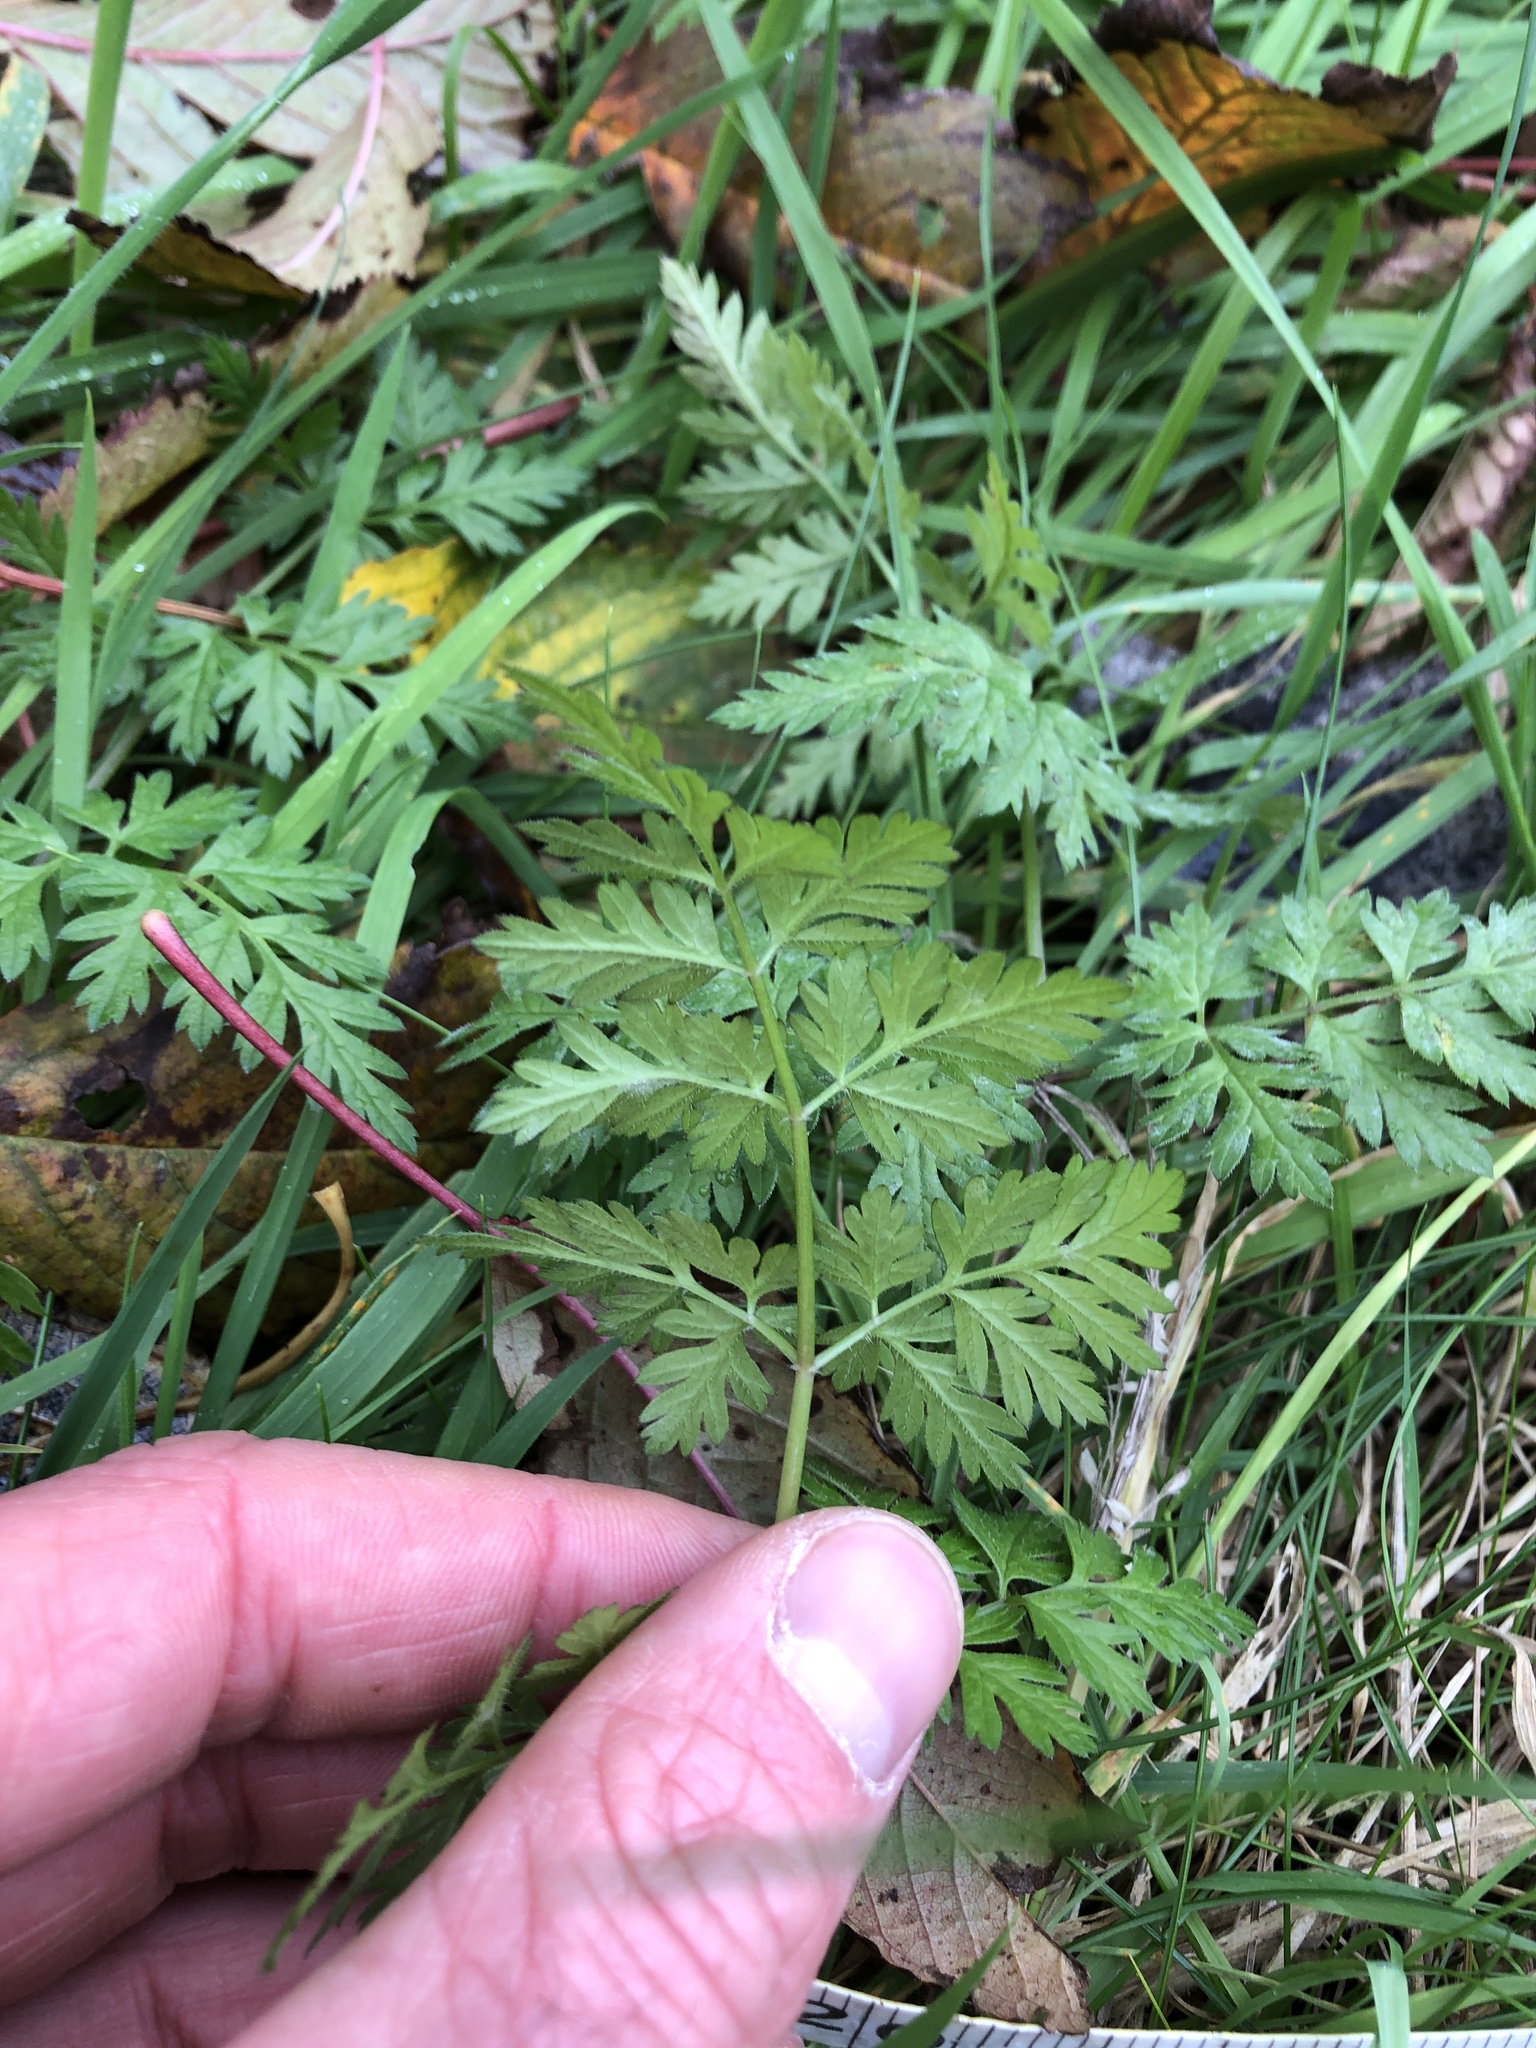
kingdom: Plantae
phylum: Tracheophyta
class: Magnoliopsida
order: Apiales
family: Apiaceae
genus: Anthriscus
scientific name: Anthriscus sylvestris
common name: Cow parsley
